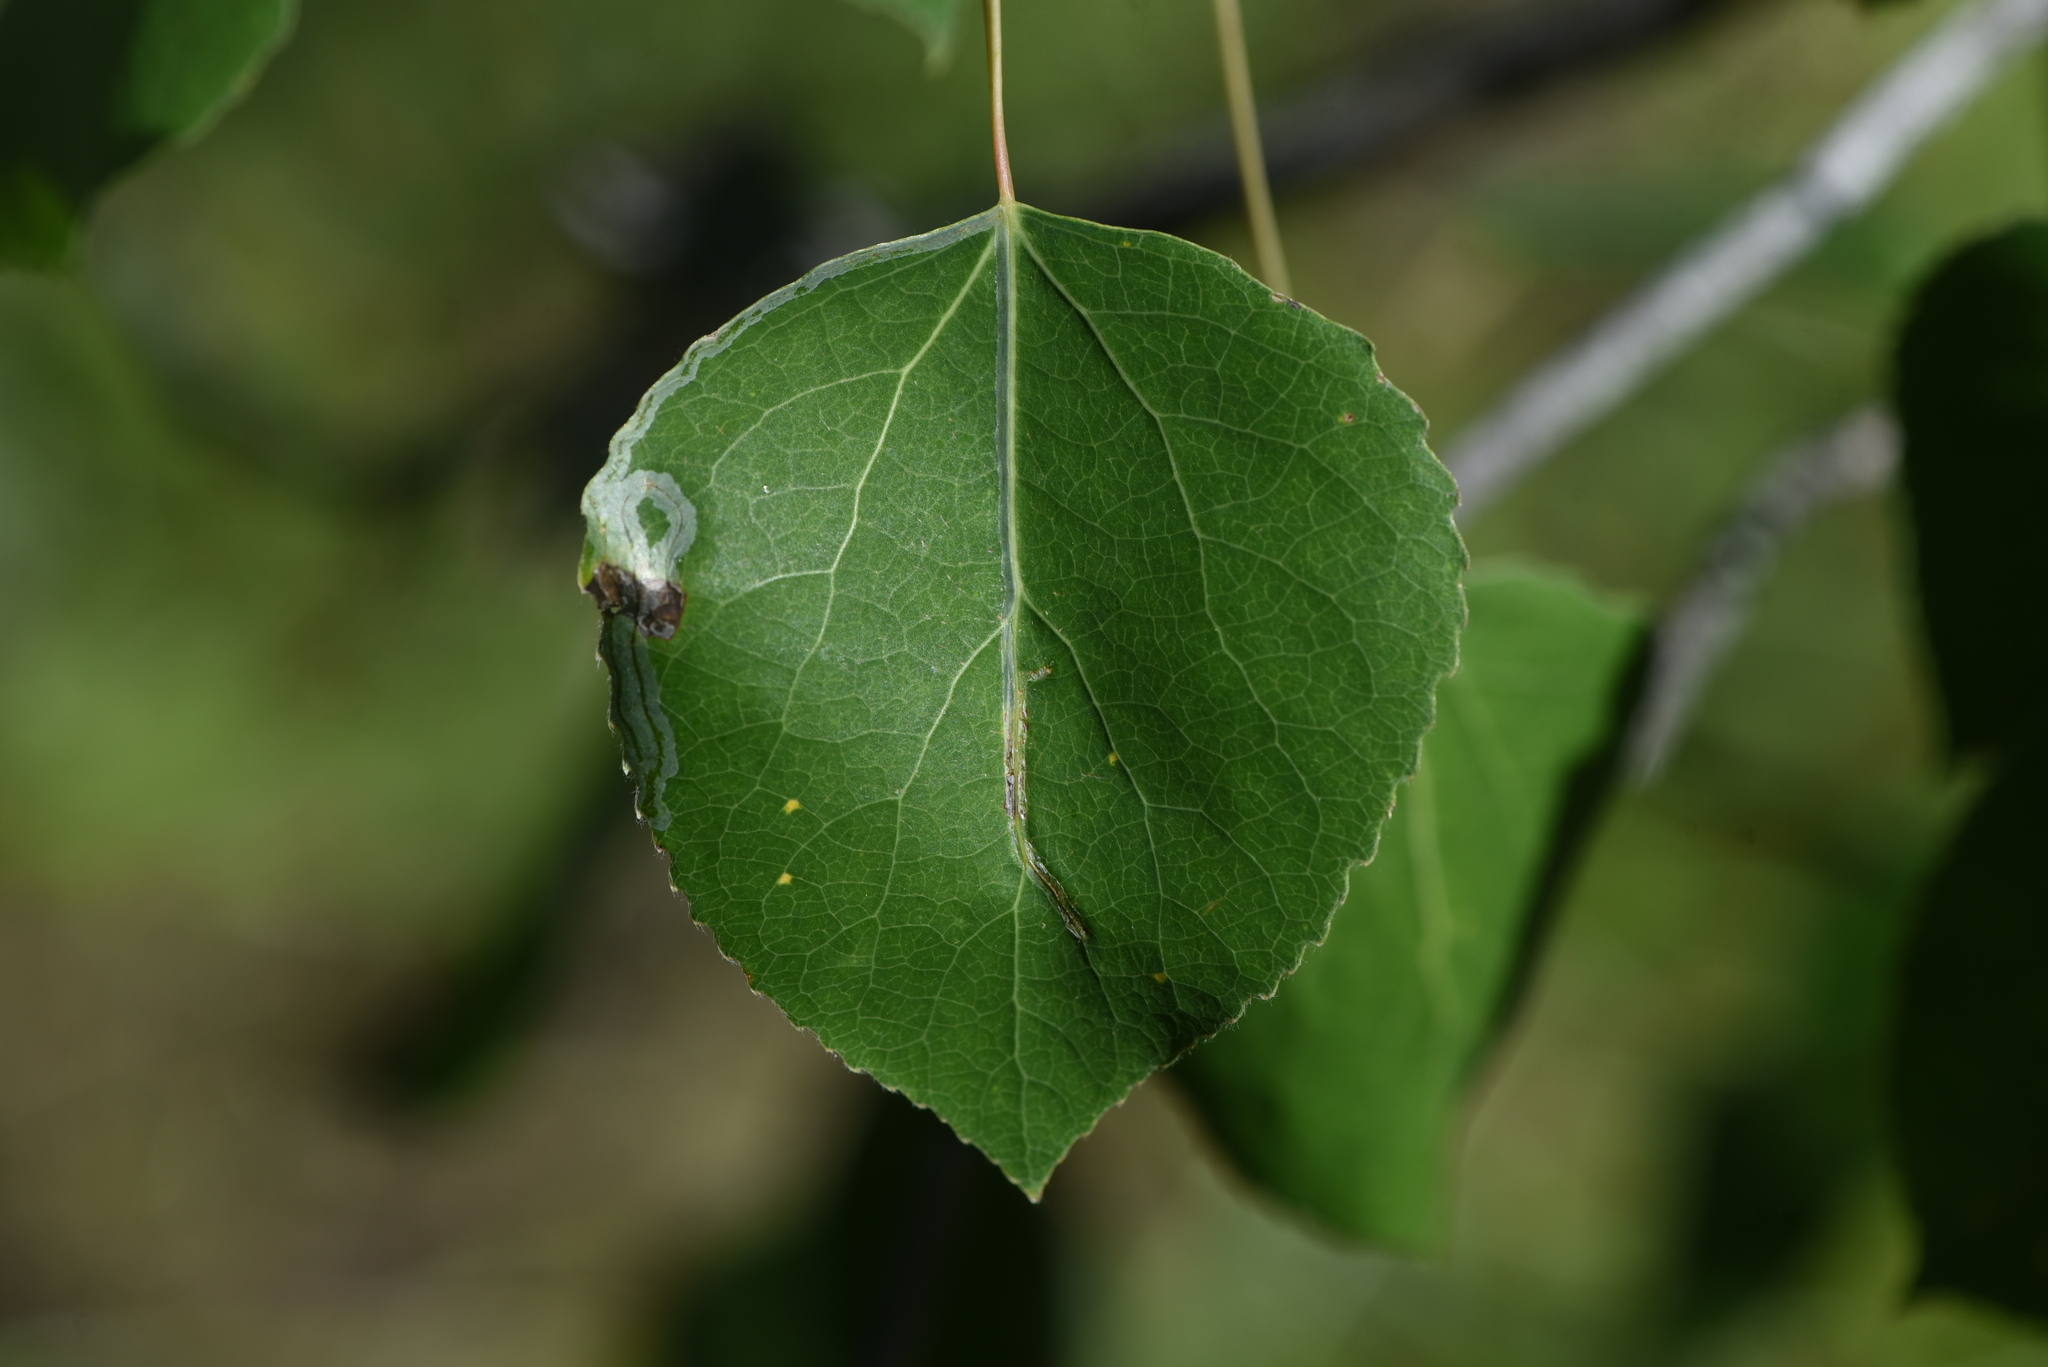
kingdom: Animalia
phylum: Arthropoda
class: Insecta
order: Lepidoptera
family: Gracillariidae
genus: Phyllocnistis
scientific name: Phyllocnistis populiella
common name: Aspen serpentine leafminer moth
